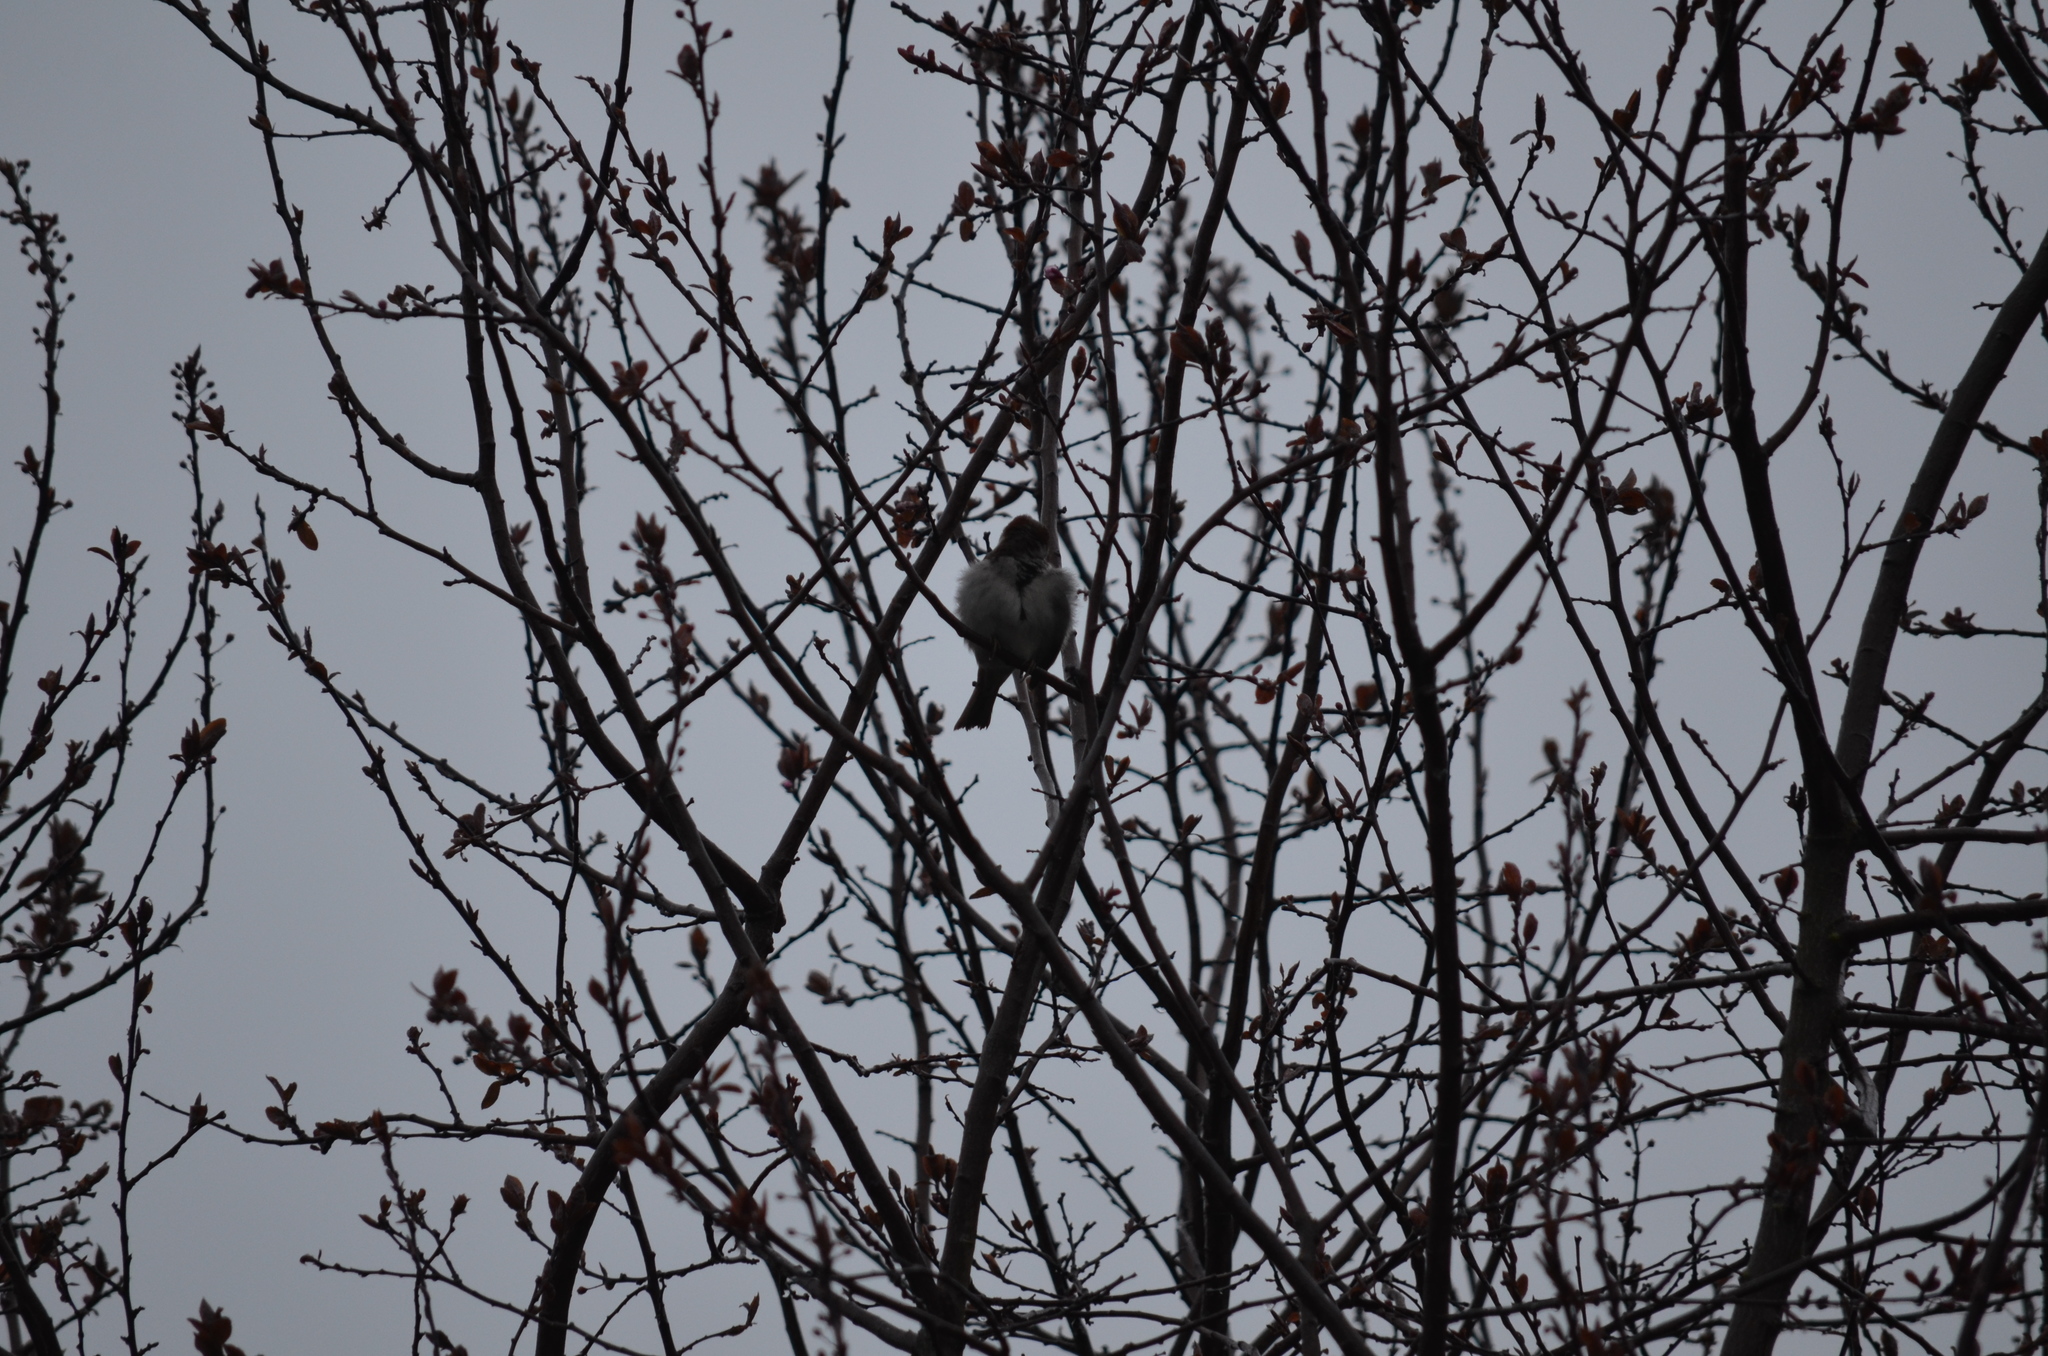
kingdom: Animalia
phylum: Chordata
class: Aves
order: Passeriformes
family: Passeridae
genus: Passer
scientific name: Passer domesticus
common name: House sparrow
